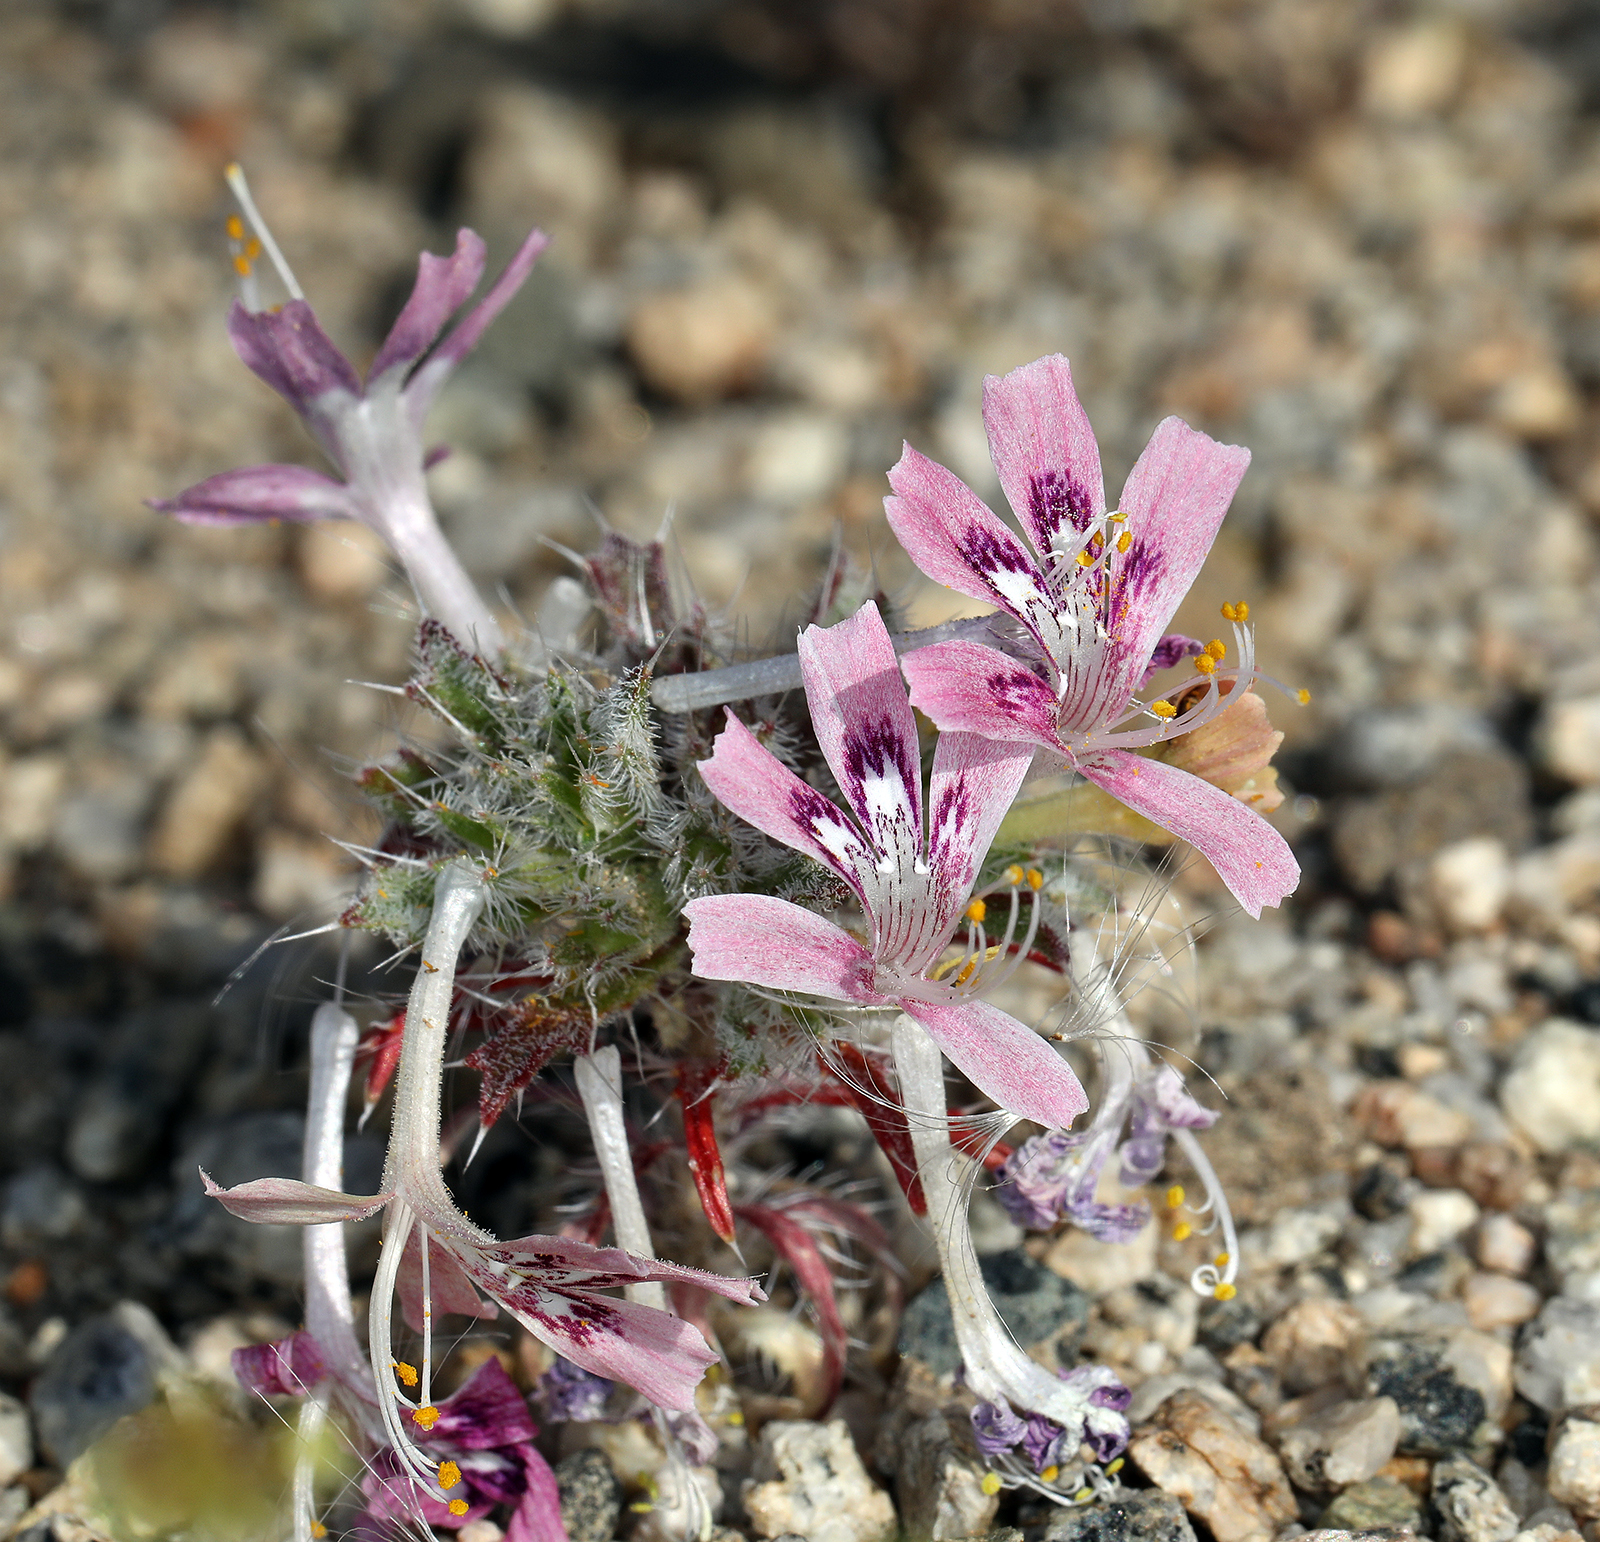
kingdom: Plantae
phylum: Tracheophyta
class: Magnoliopsida
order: Ericales
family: Polemoniaceae
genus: Loeseliastrum
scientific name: Loeseliastrum matthewsii
